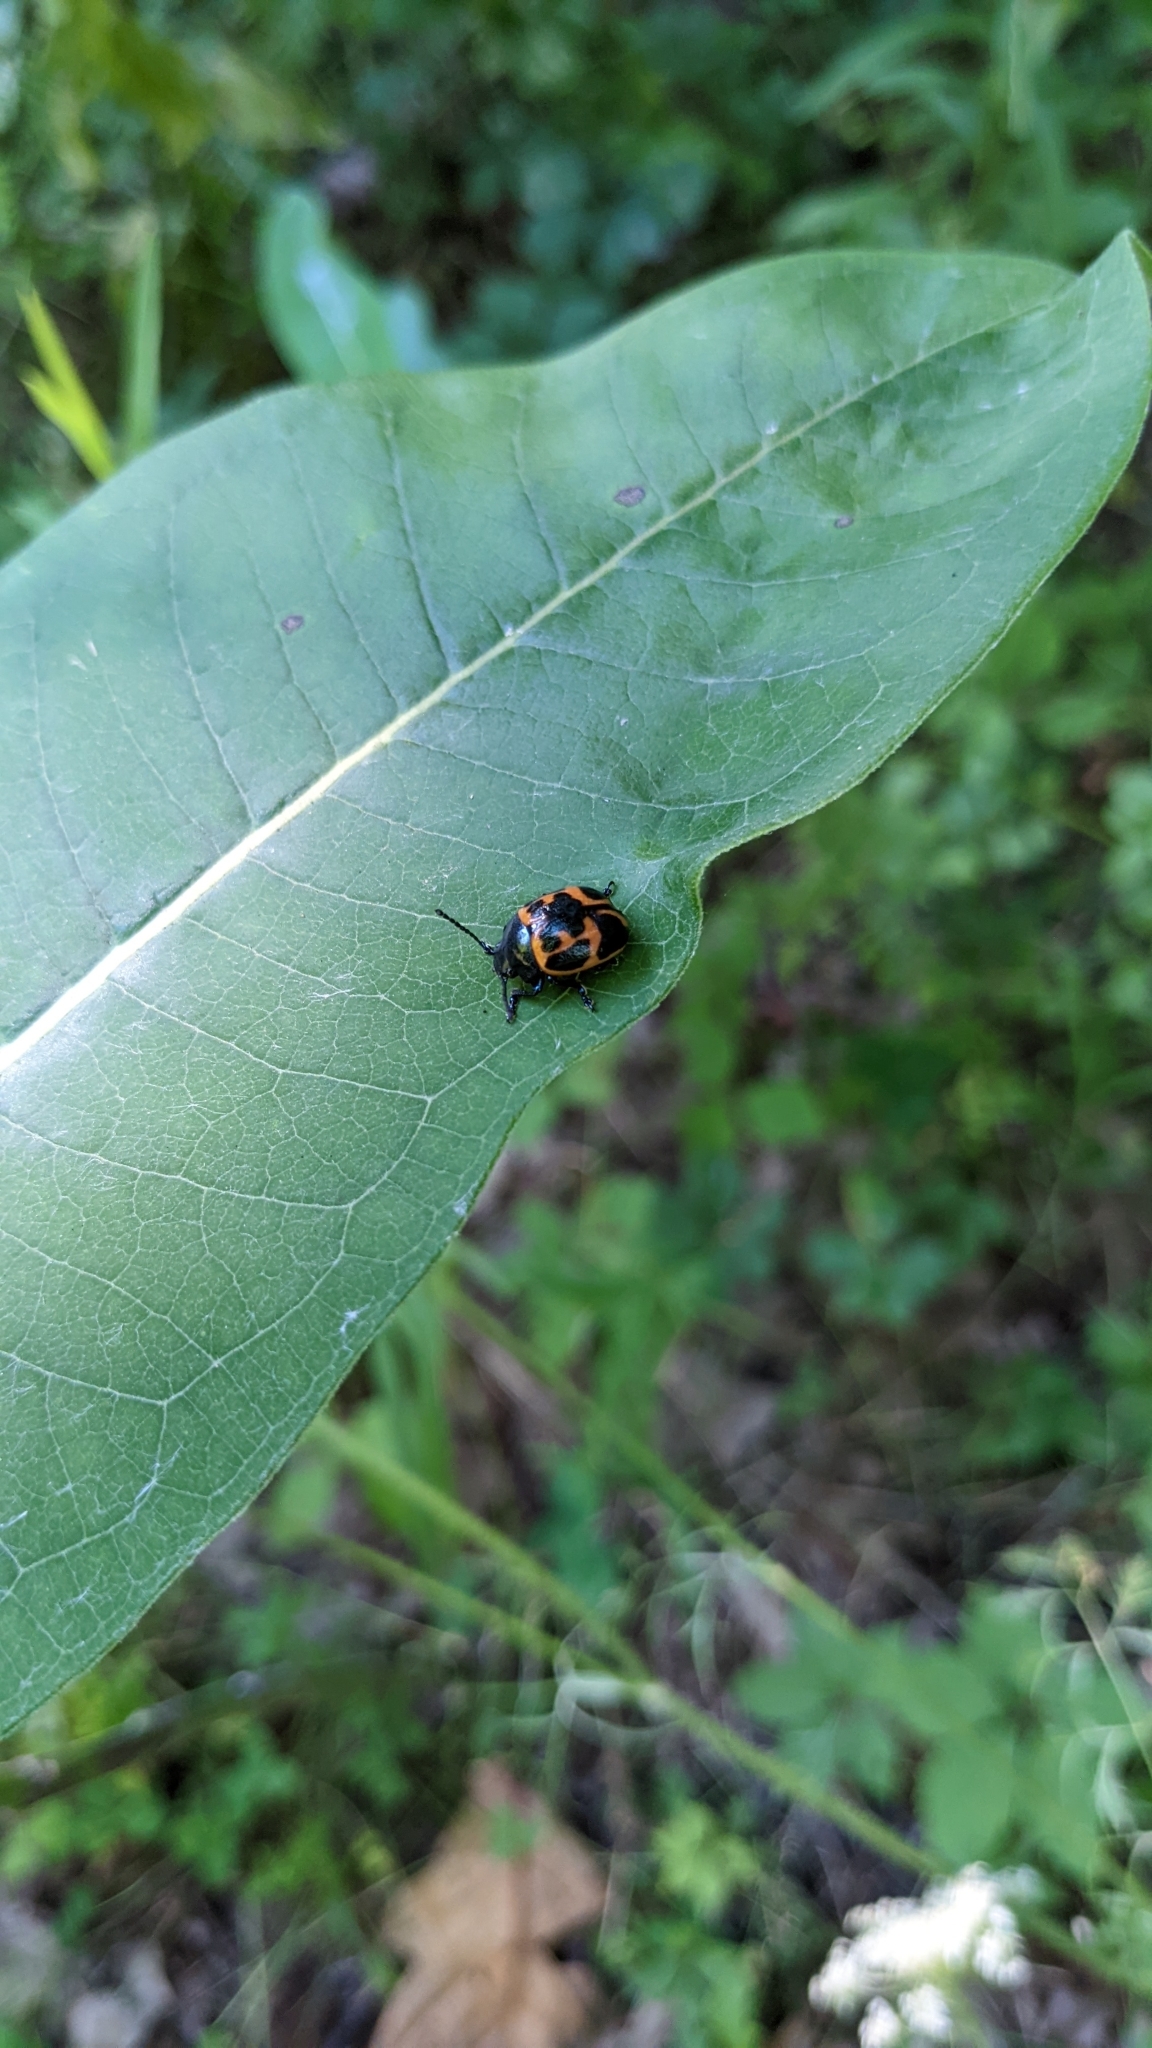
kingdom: Animalia
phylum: Arthropoda
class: Insecta
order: Coleoptera
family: Chrysomelidae
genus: Labidomera
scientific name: Labidomera clivicollis
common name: Swamp milkweed leaf beetle
